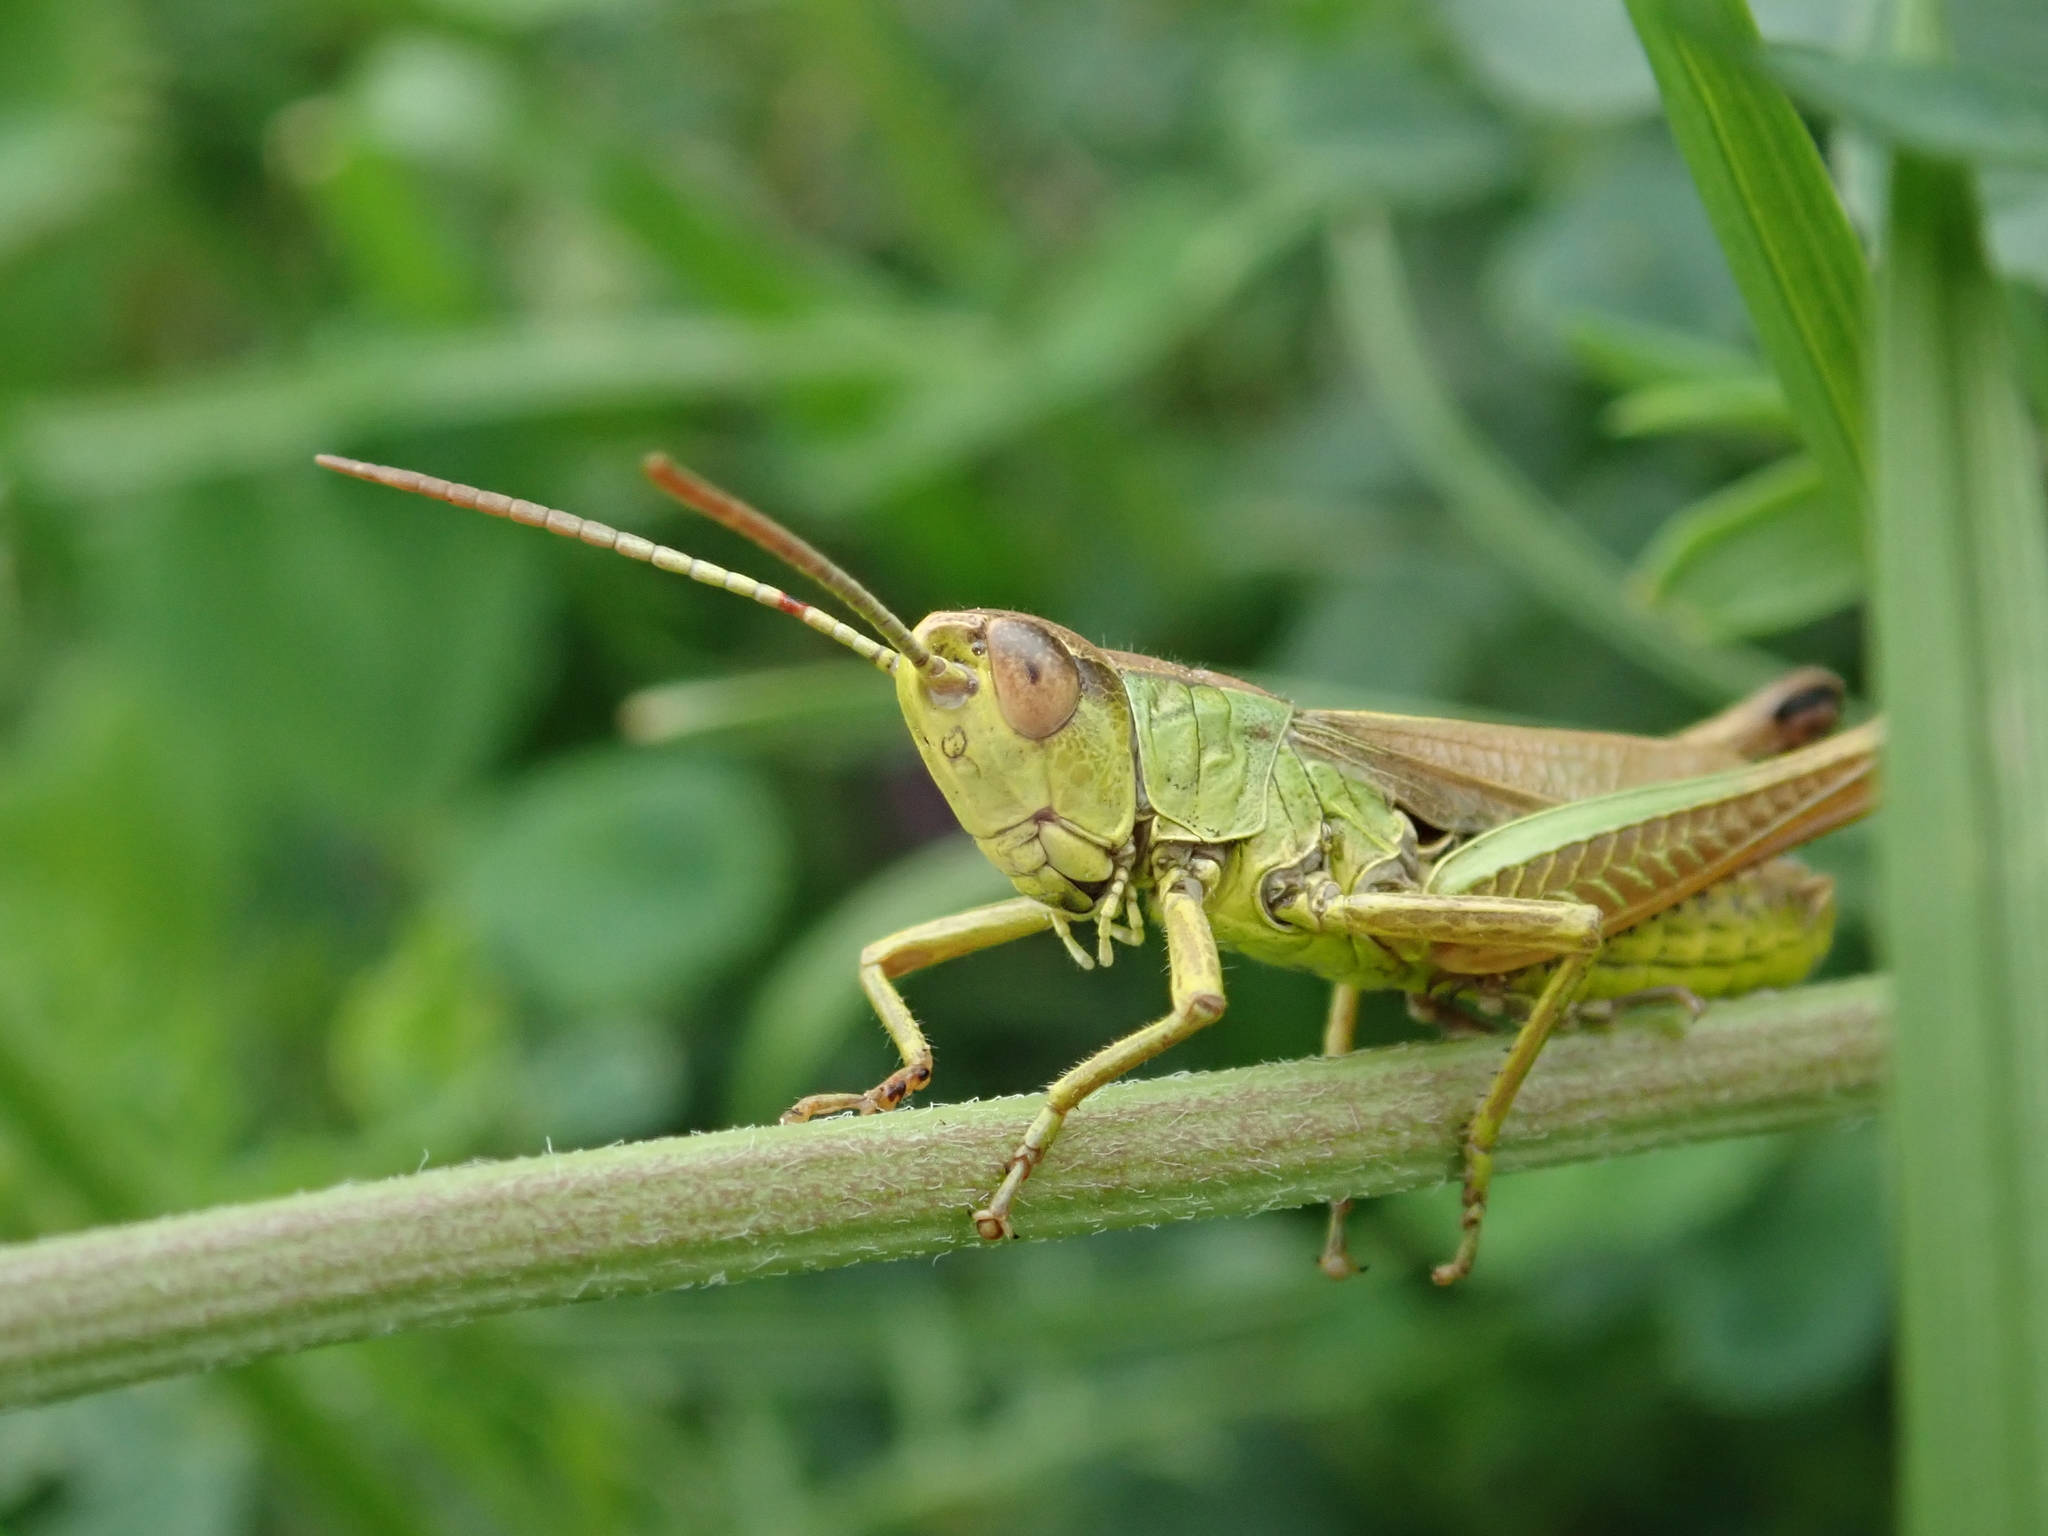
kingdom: Animalia
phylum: Arthropoda
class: Insecta
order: Orthoptera
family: Acrididae
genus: Pseudochorthippus
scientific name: Pseudochorthippus parallelus
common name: Meadow grasshopper
